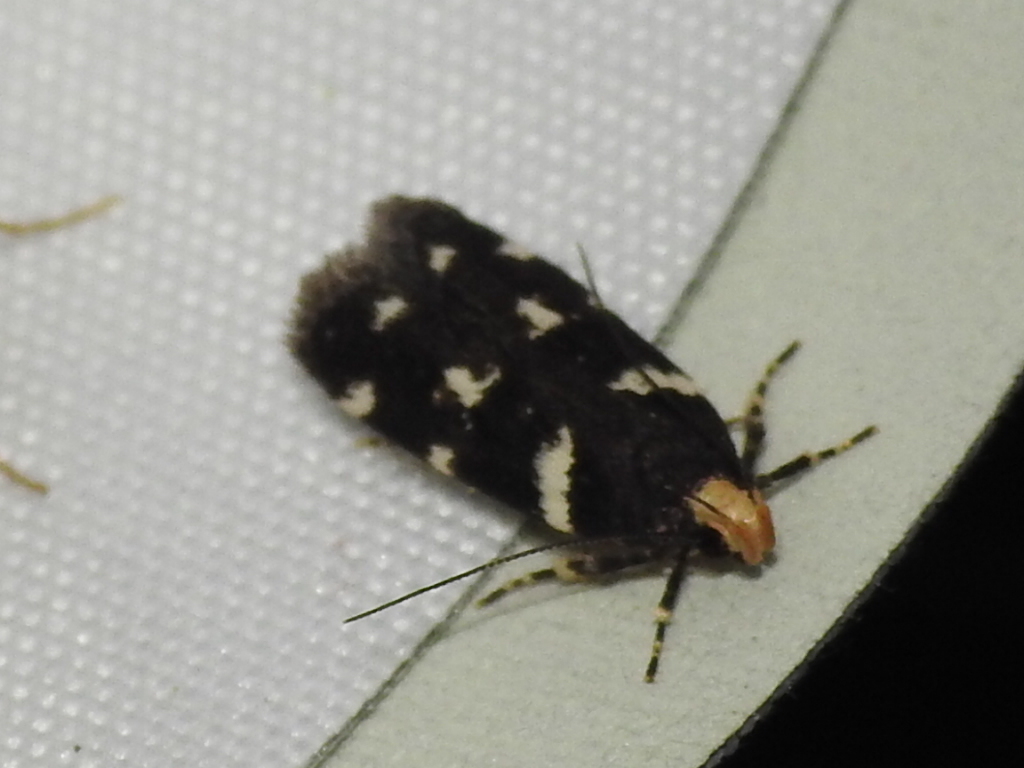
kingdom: Animalia
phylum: Arthropoda
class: Insecta
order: Lepidoptera
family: Gelechiidae
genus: Fascista
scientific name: Fascista quinella
